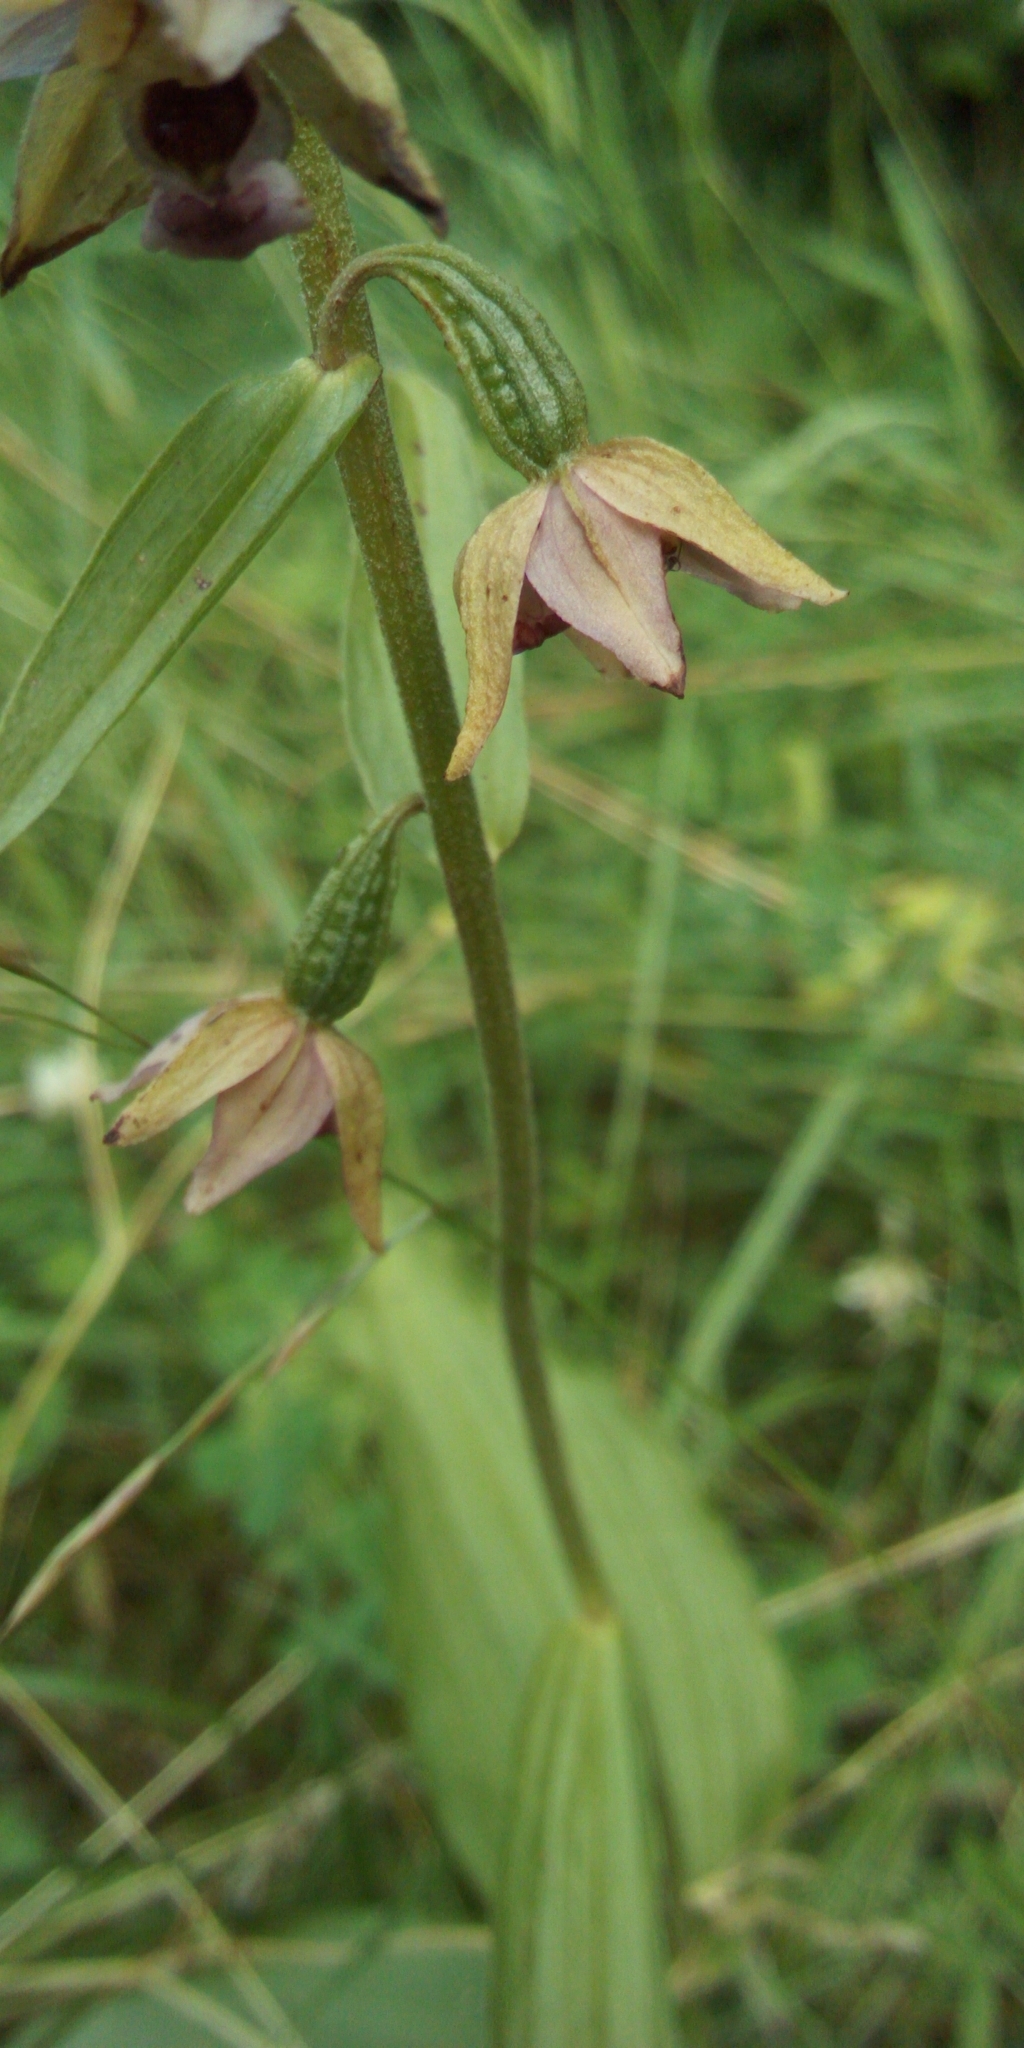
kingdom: Plantae
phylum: Tracheophyta
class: Liliopsida
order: Asparagales
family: Orchidaceae
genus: Epipactis
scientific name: Epipactis helleborine
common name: Broad-leaved helleborine
